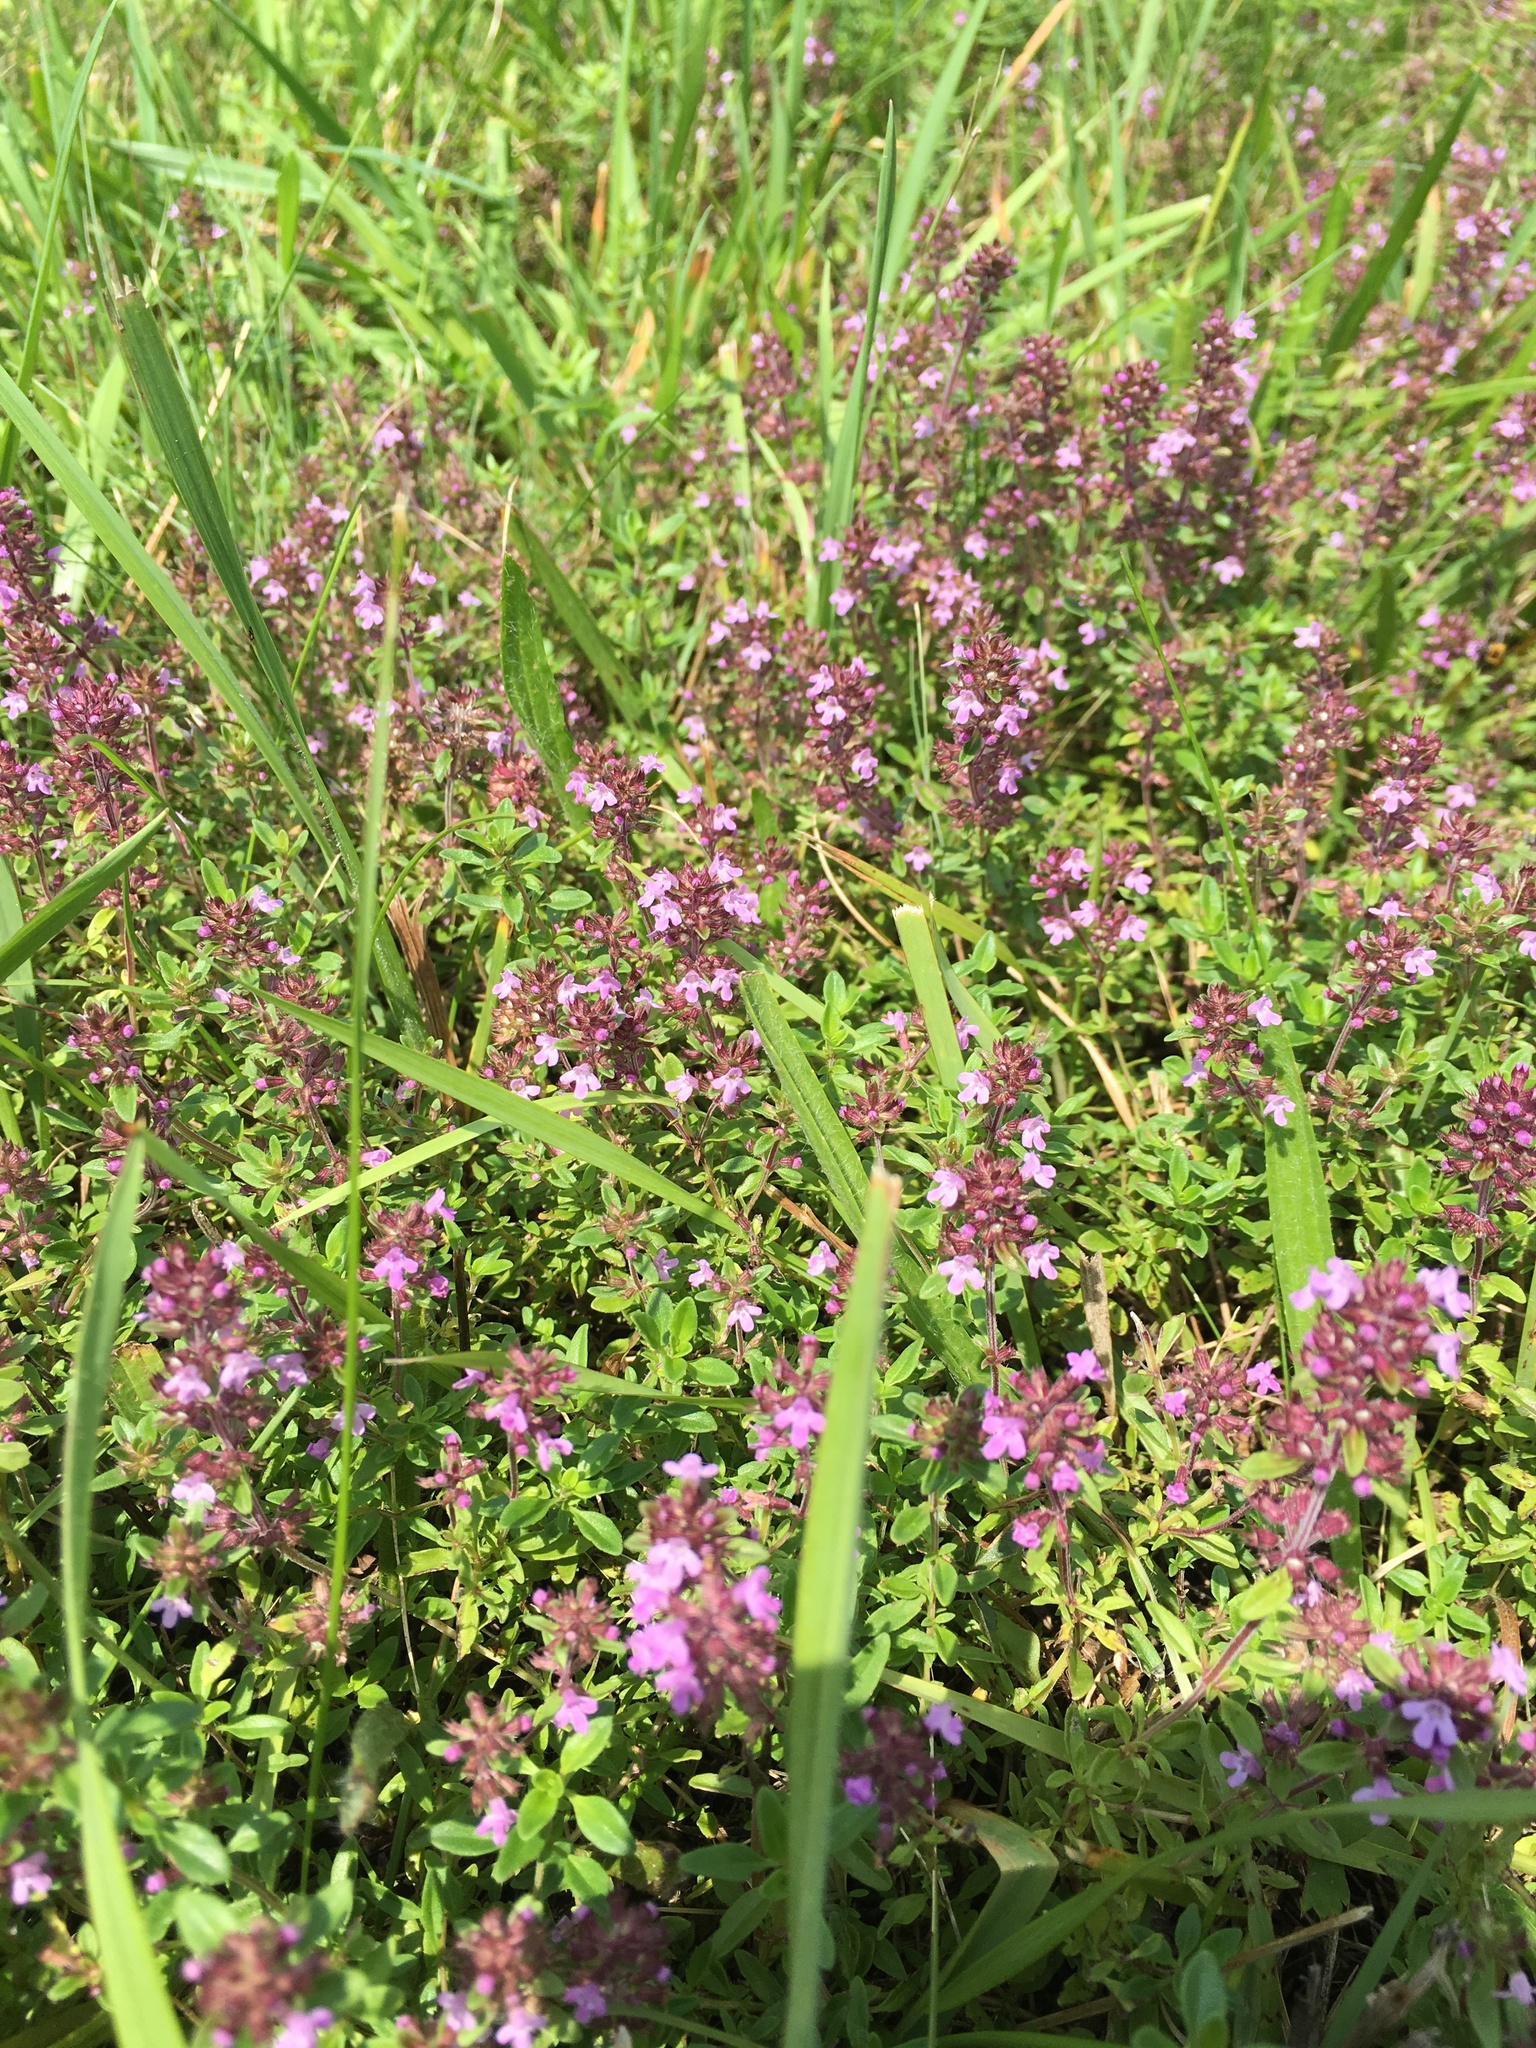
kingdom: Plantae
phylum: Tracheophyta
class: Magnoliopsida
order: Lamiales
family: Lamiaceae
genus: Thymus
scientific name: Thymus pulegioides
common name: Large thyme
